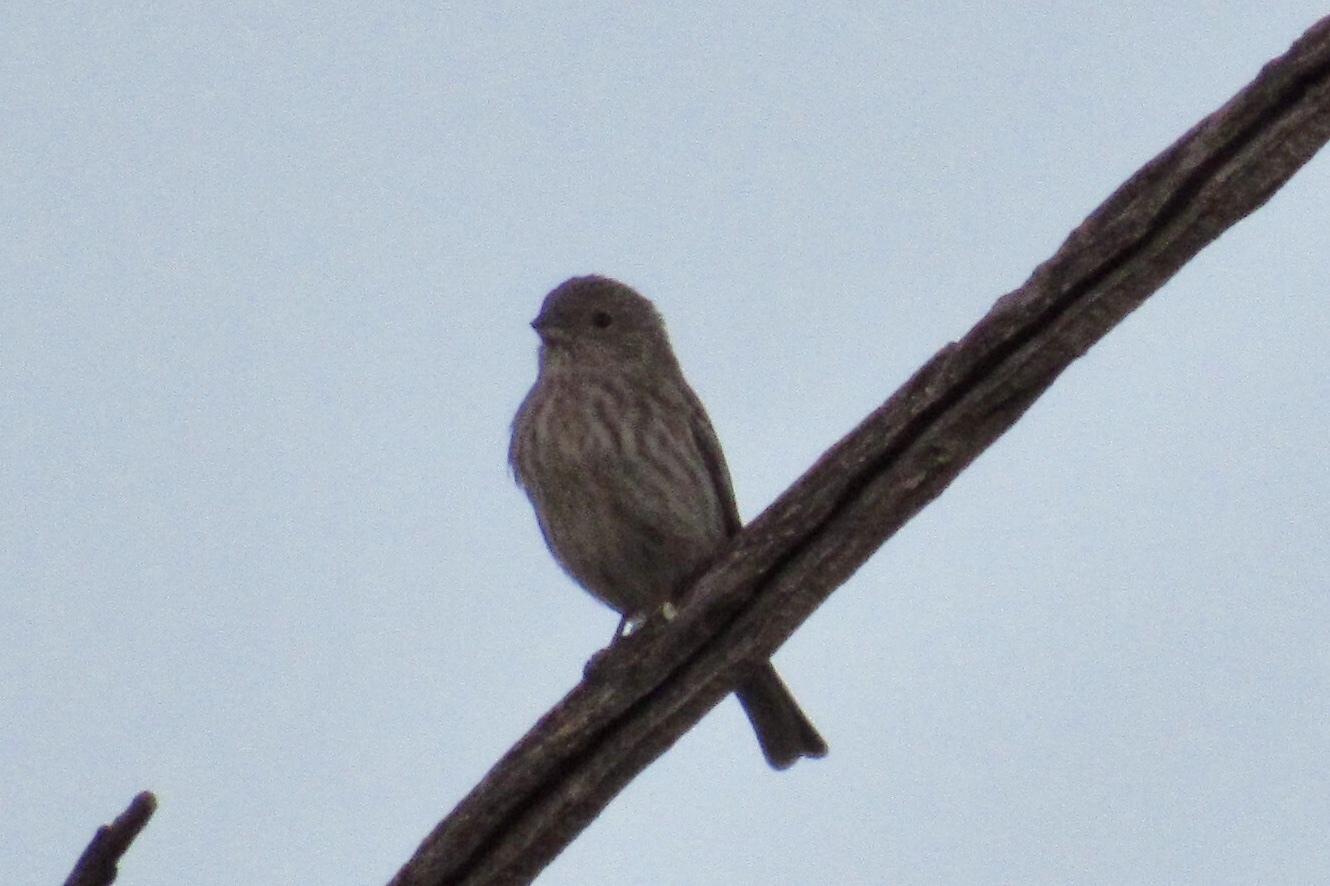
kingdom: Animalia
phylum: Chordata
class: Aves
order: Passeriformes
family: Fringillidae
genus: Haemorhous
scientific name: Haemorhous mexicanus
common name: House finch
